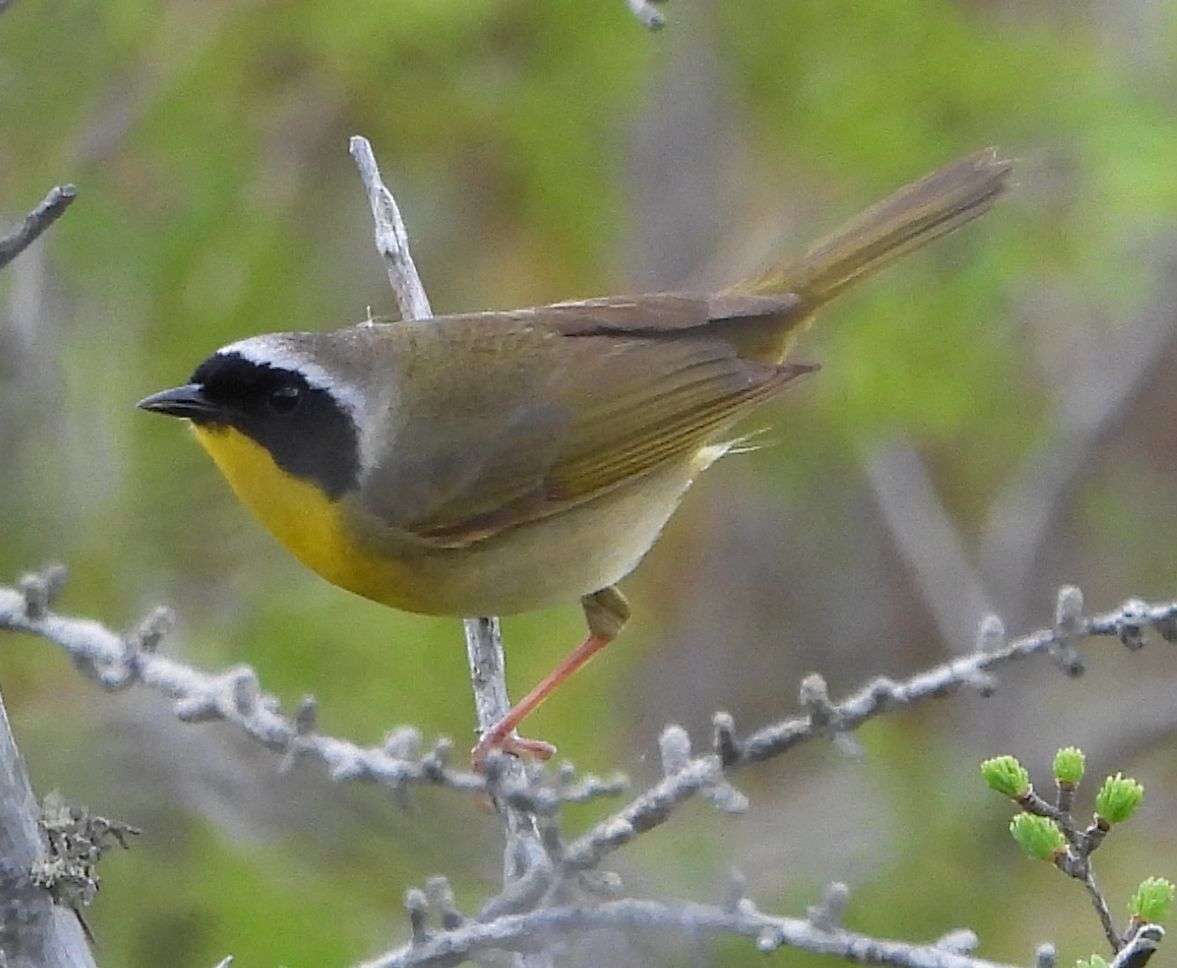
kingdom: Animalia
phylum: Chordata
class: Aves
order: Passeriformes
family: Parulidae
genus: Geothlypis
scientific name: Geothlypis trichas
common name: Common yellowthroat
